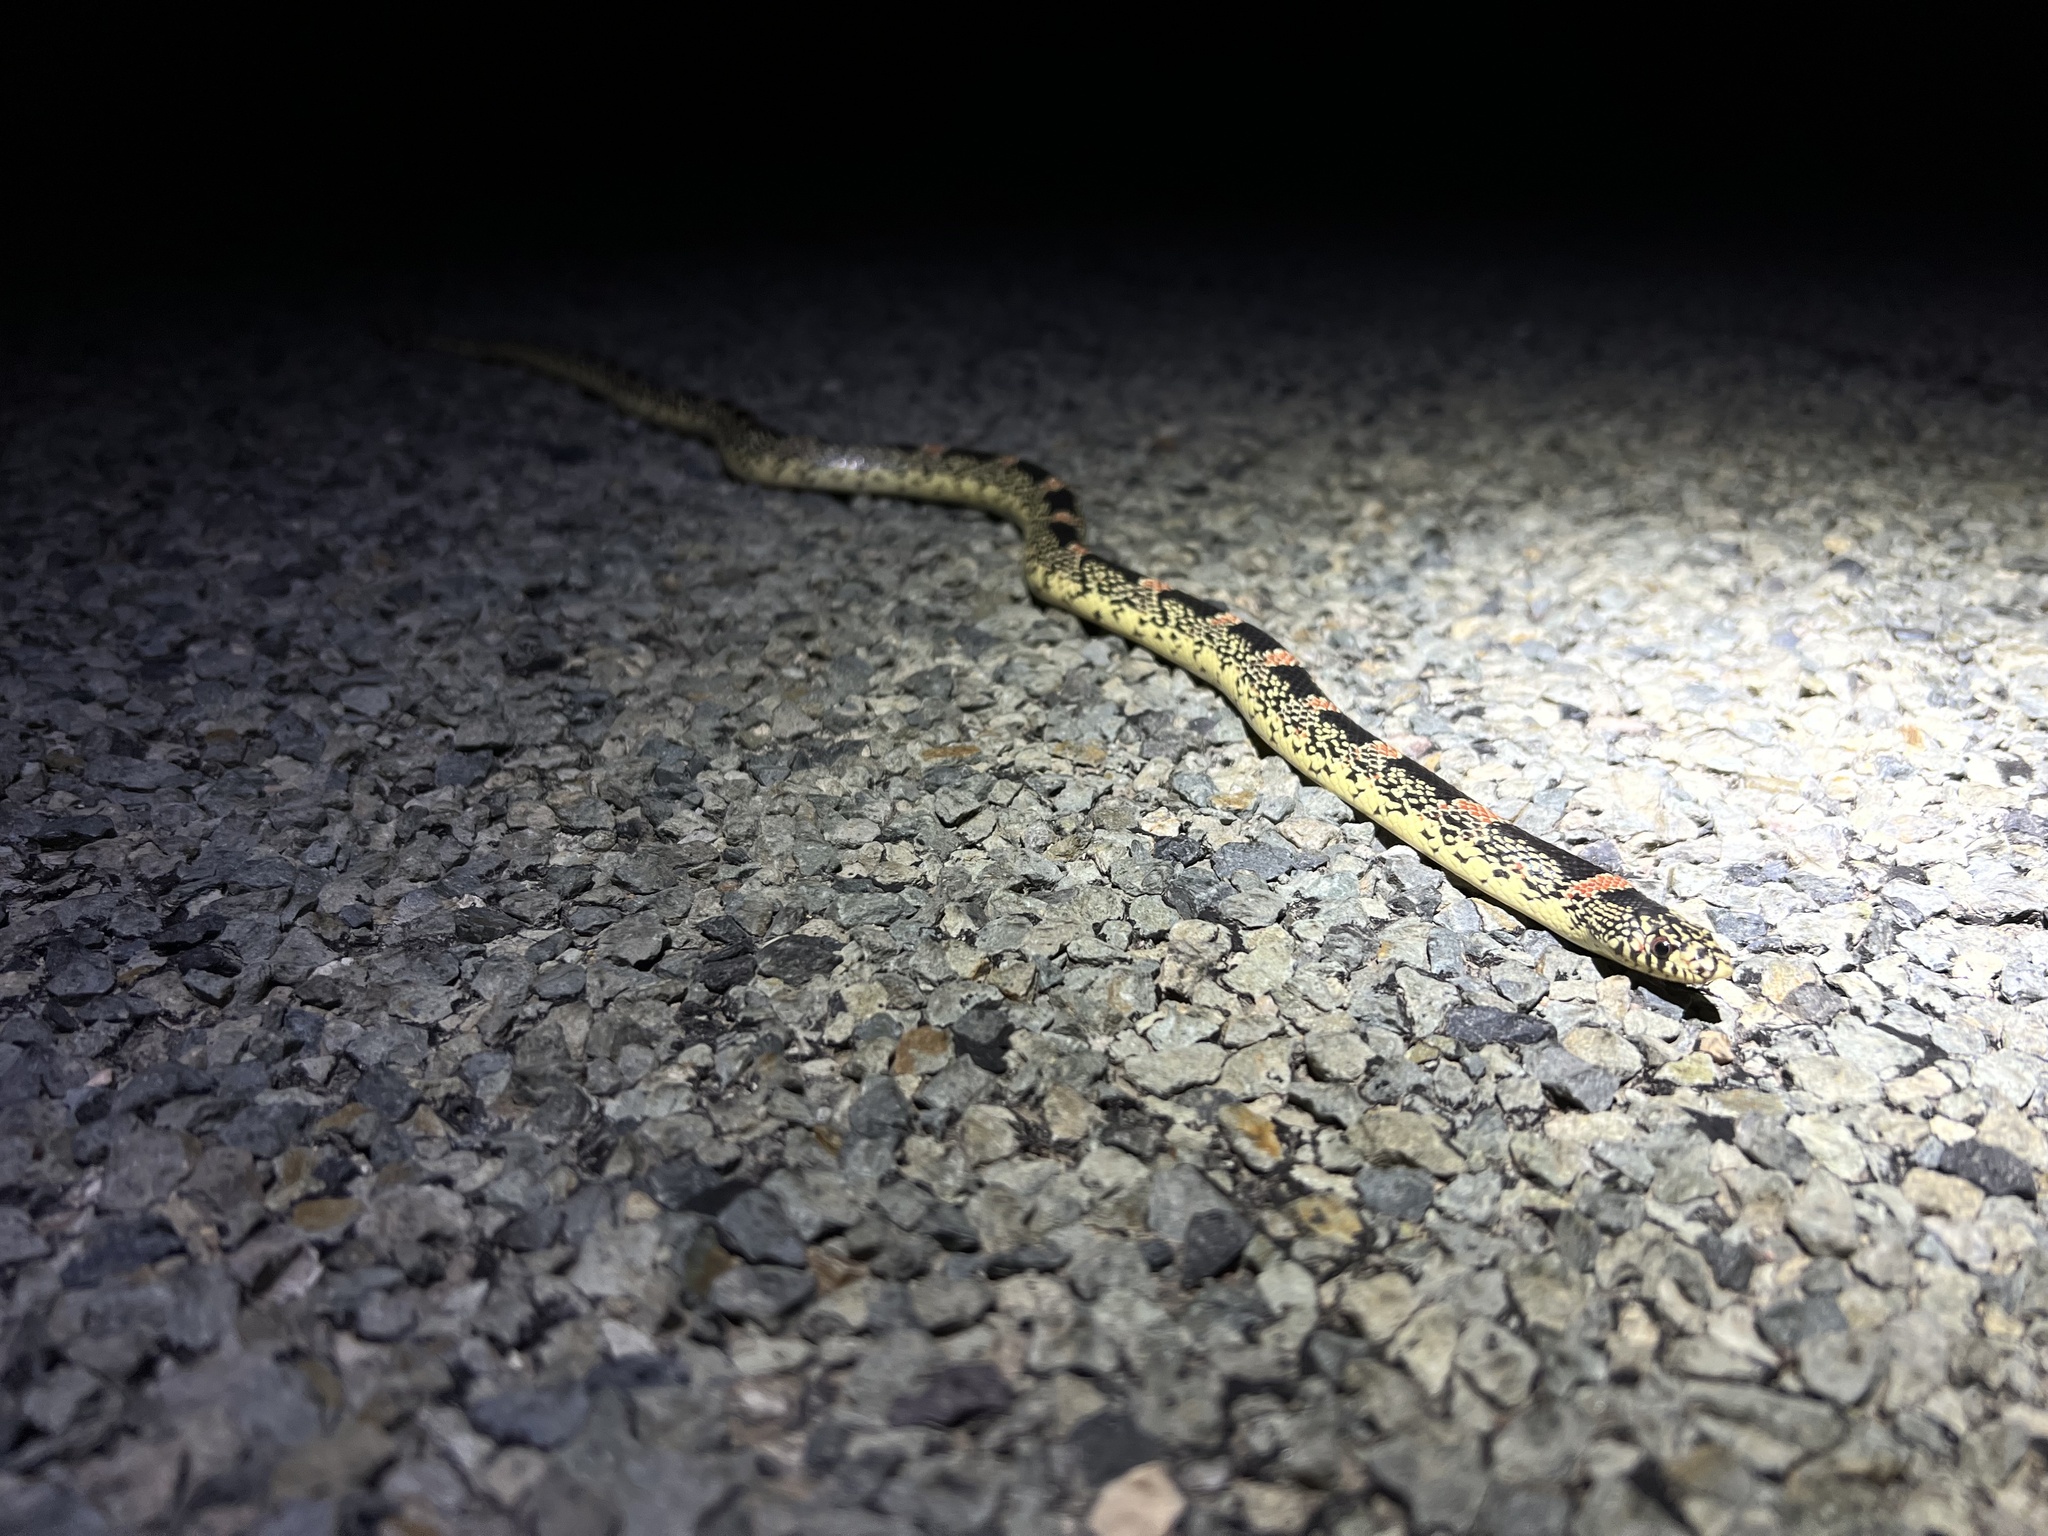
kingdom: Animalia
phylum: Chordata
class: Squamata
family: Colubridae
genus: Rhinocheilus
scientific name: Rhinocheilus lecontei
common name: Longnose snake
